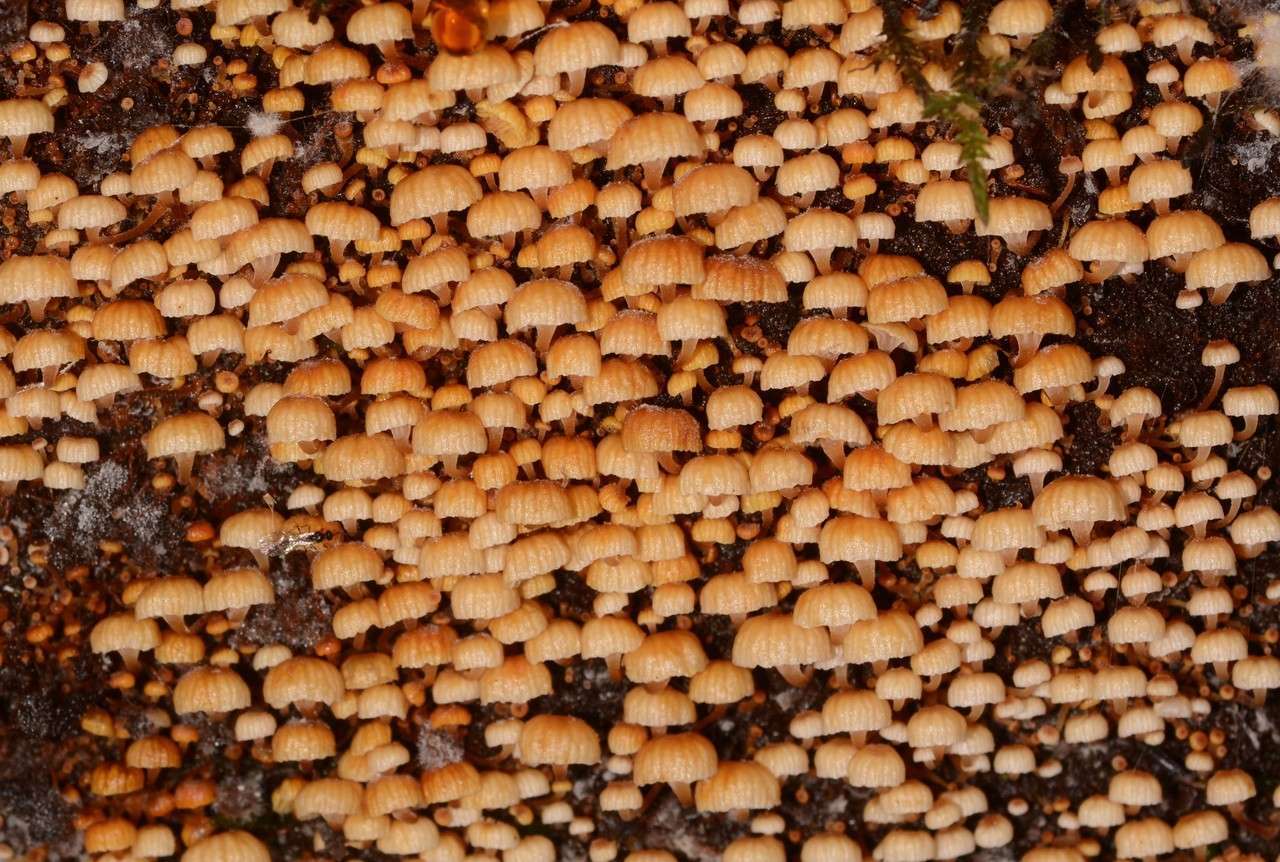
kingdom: Fungi
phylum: Basidiomycota
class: Agaricomycetes
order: Agaricales
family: Mycenaceae
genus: Xeromphalina
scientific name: Xeromphalina leonina
